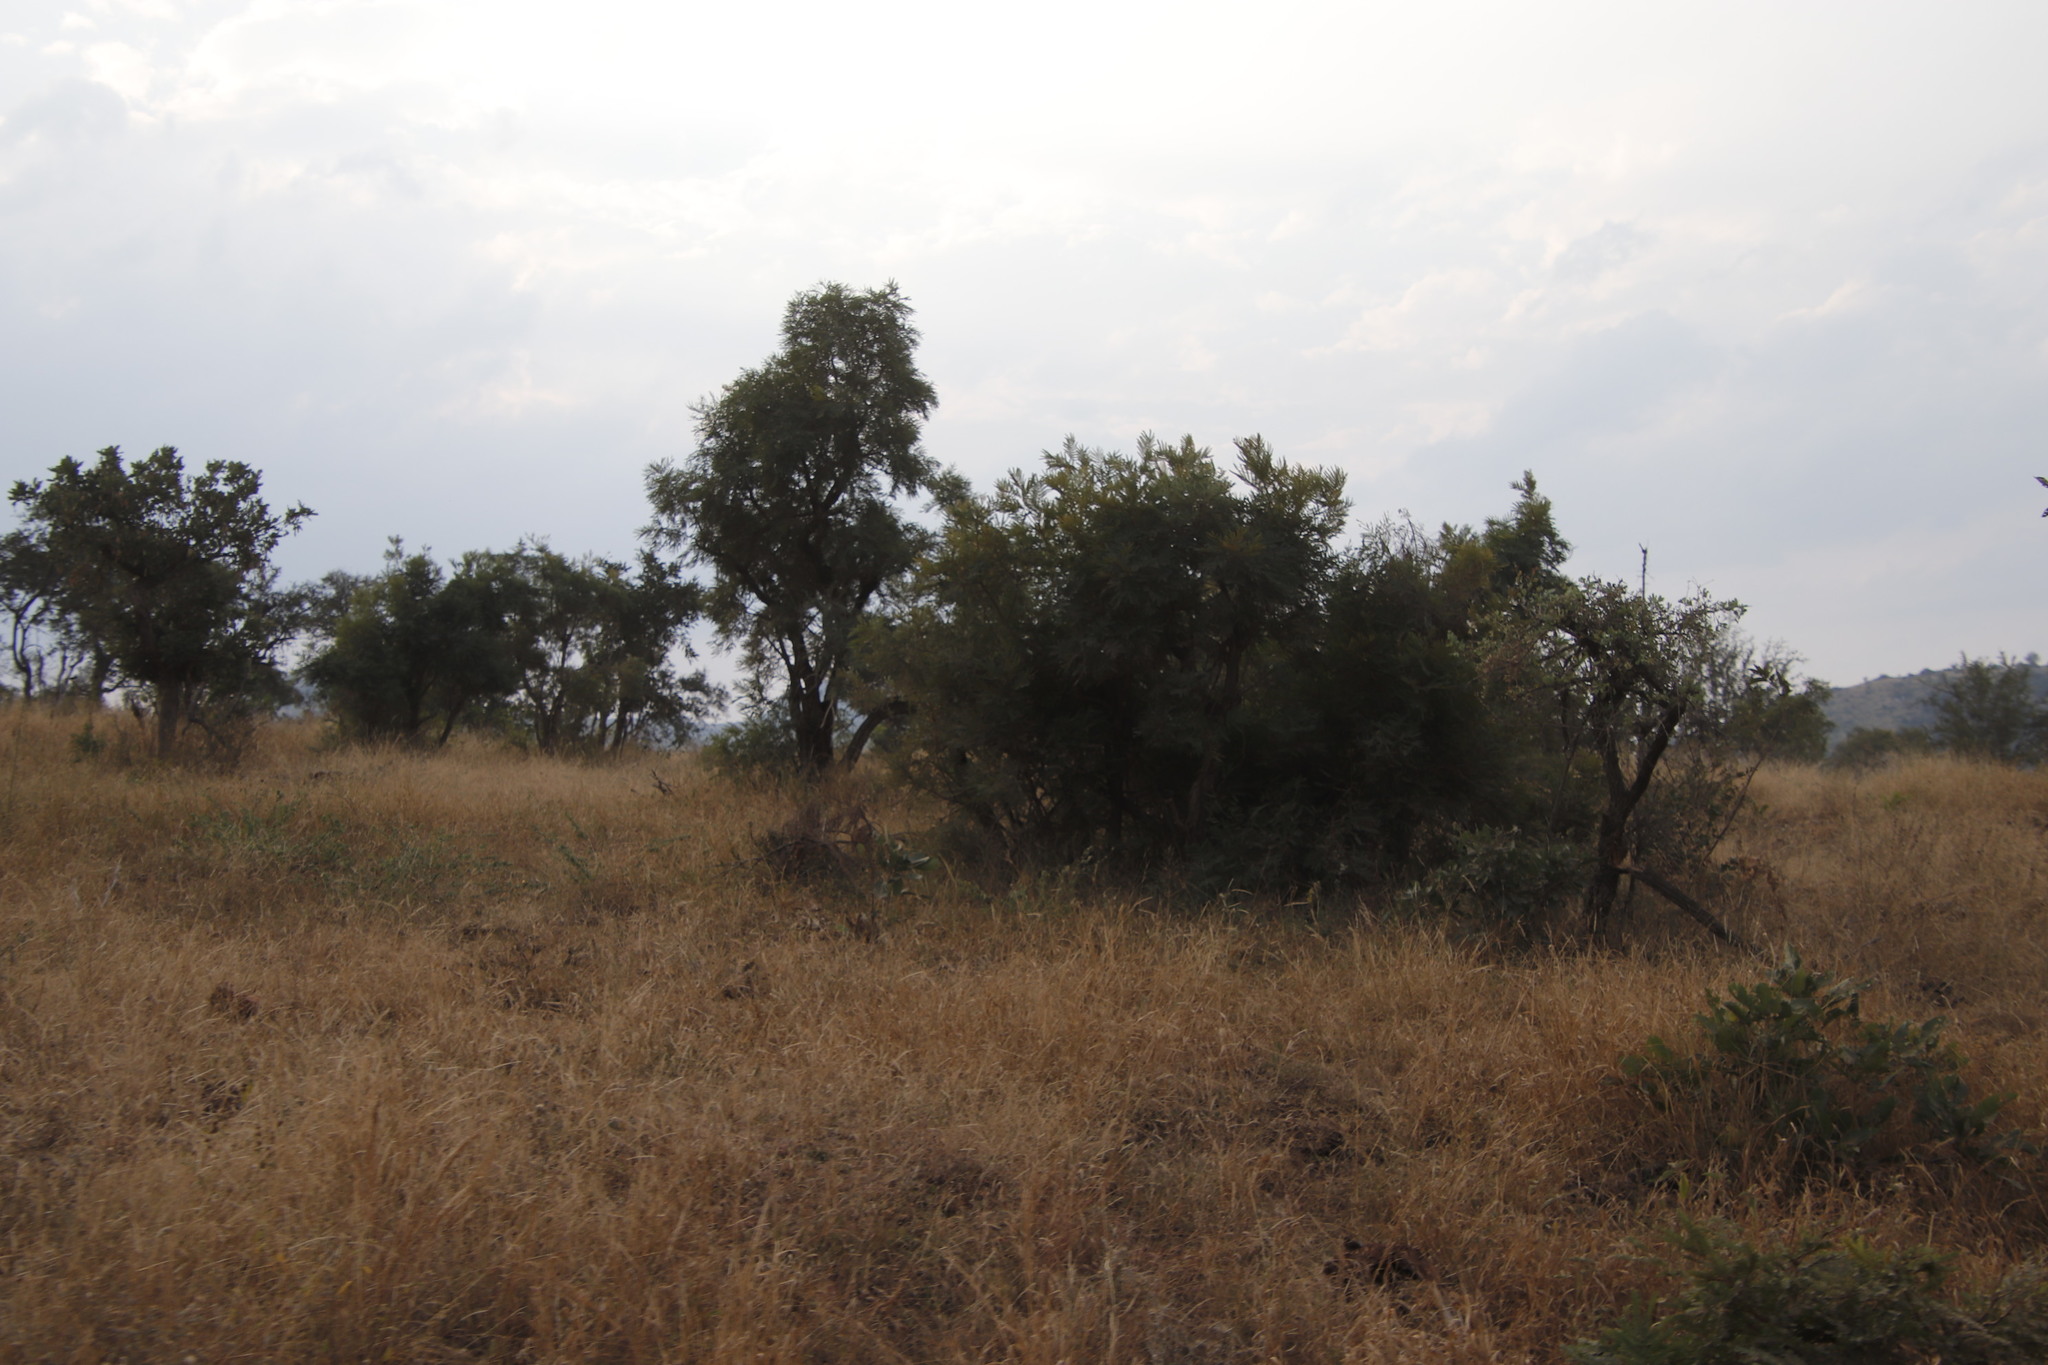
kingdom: Plantae
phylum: Tracheophyta
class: Magnoliopsida
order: Fabales
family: Fabaceae
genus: Peltophorum
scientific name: Peltophorum africanum
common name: African black wattle
